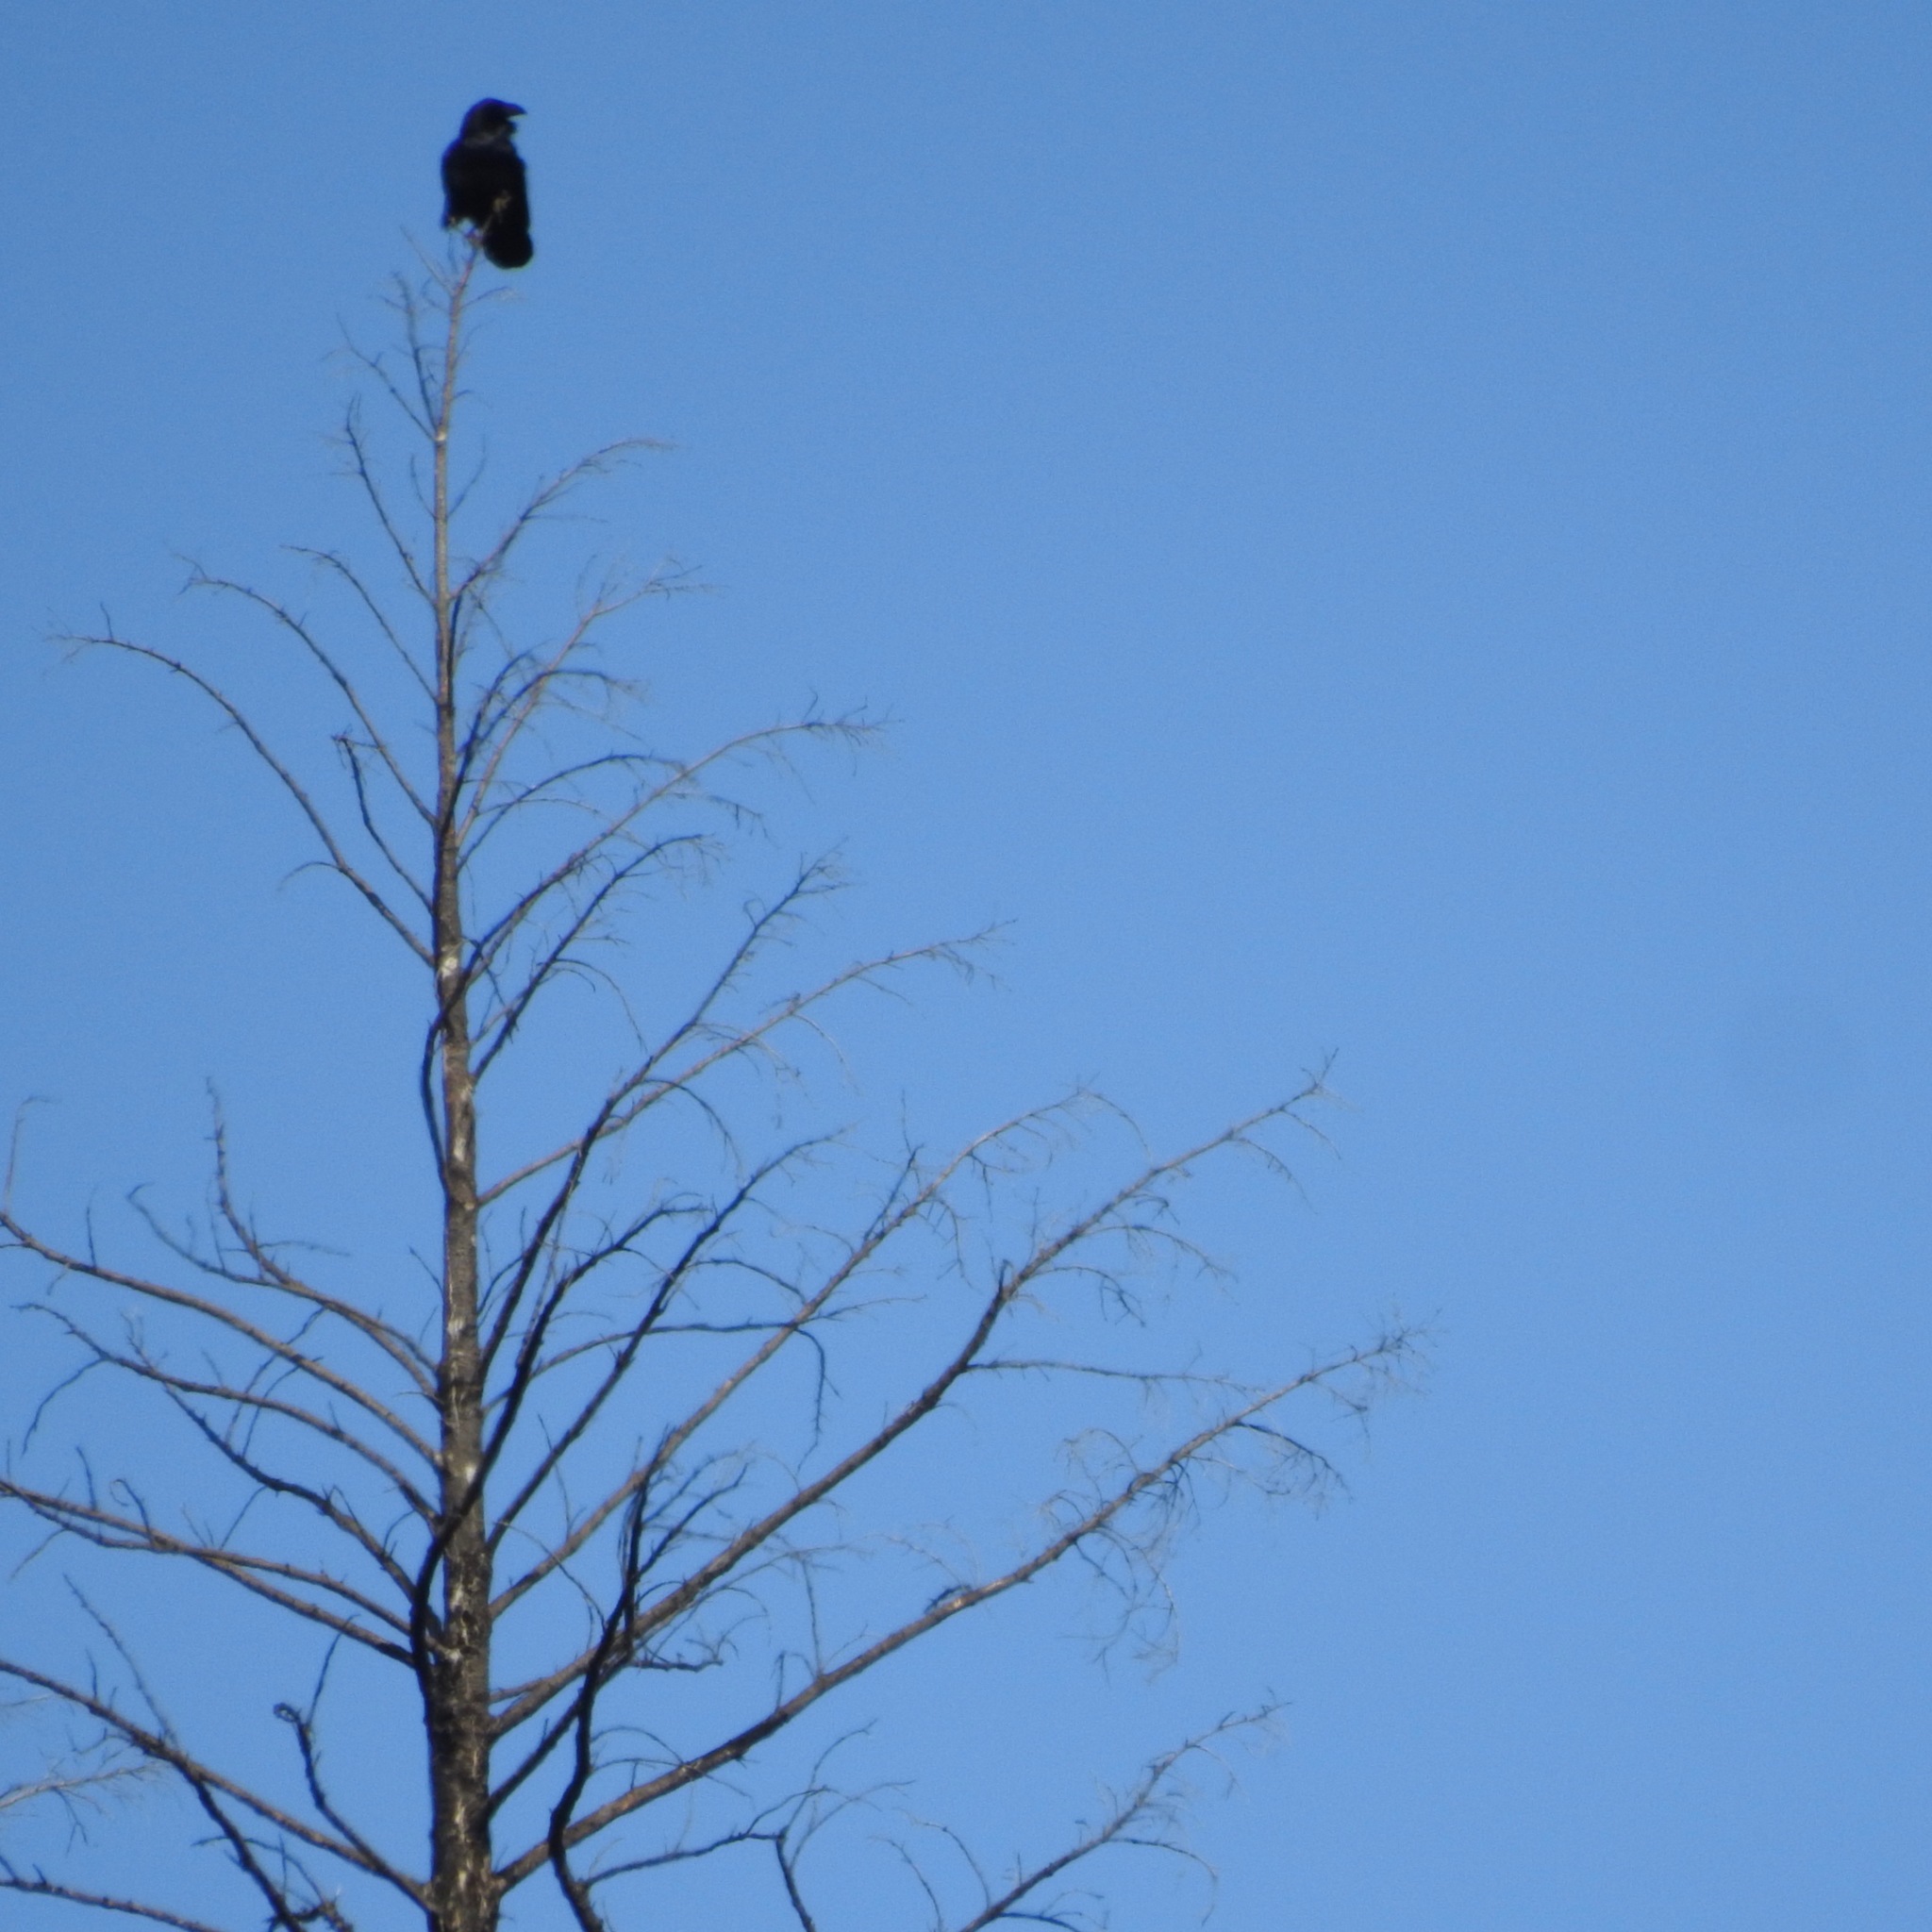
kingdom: Animalia
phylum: Chordata
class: Aves
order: Passeriformes
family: Corvidae
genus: Corvus
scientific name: Corvus corax
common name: Common raven
